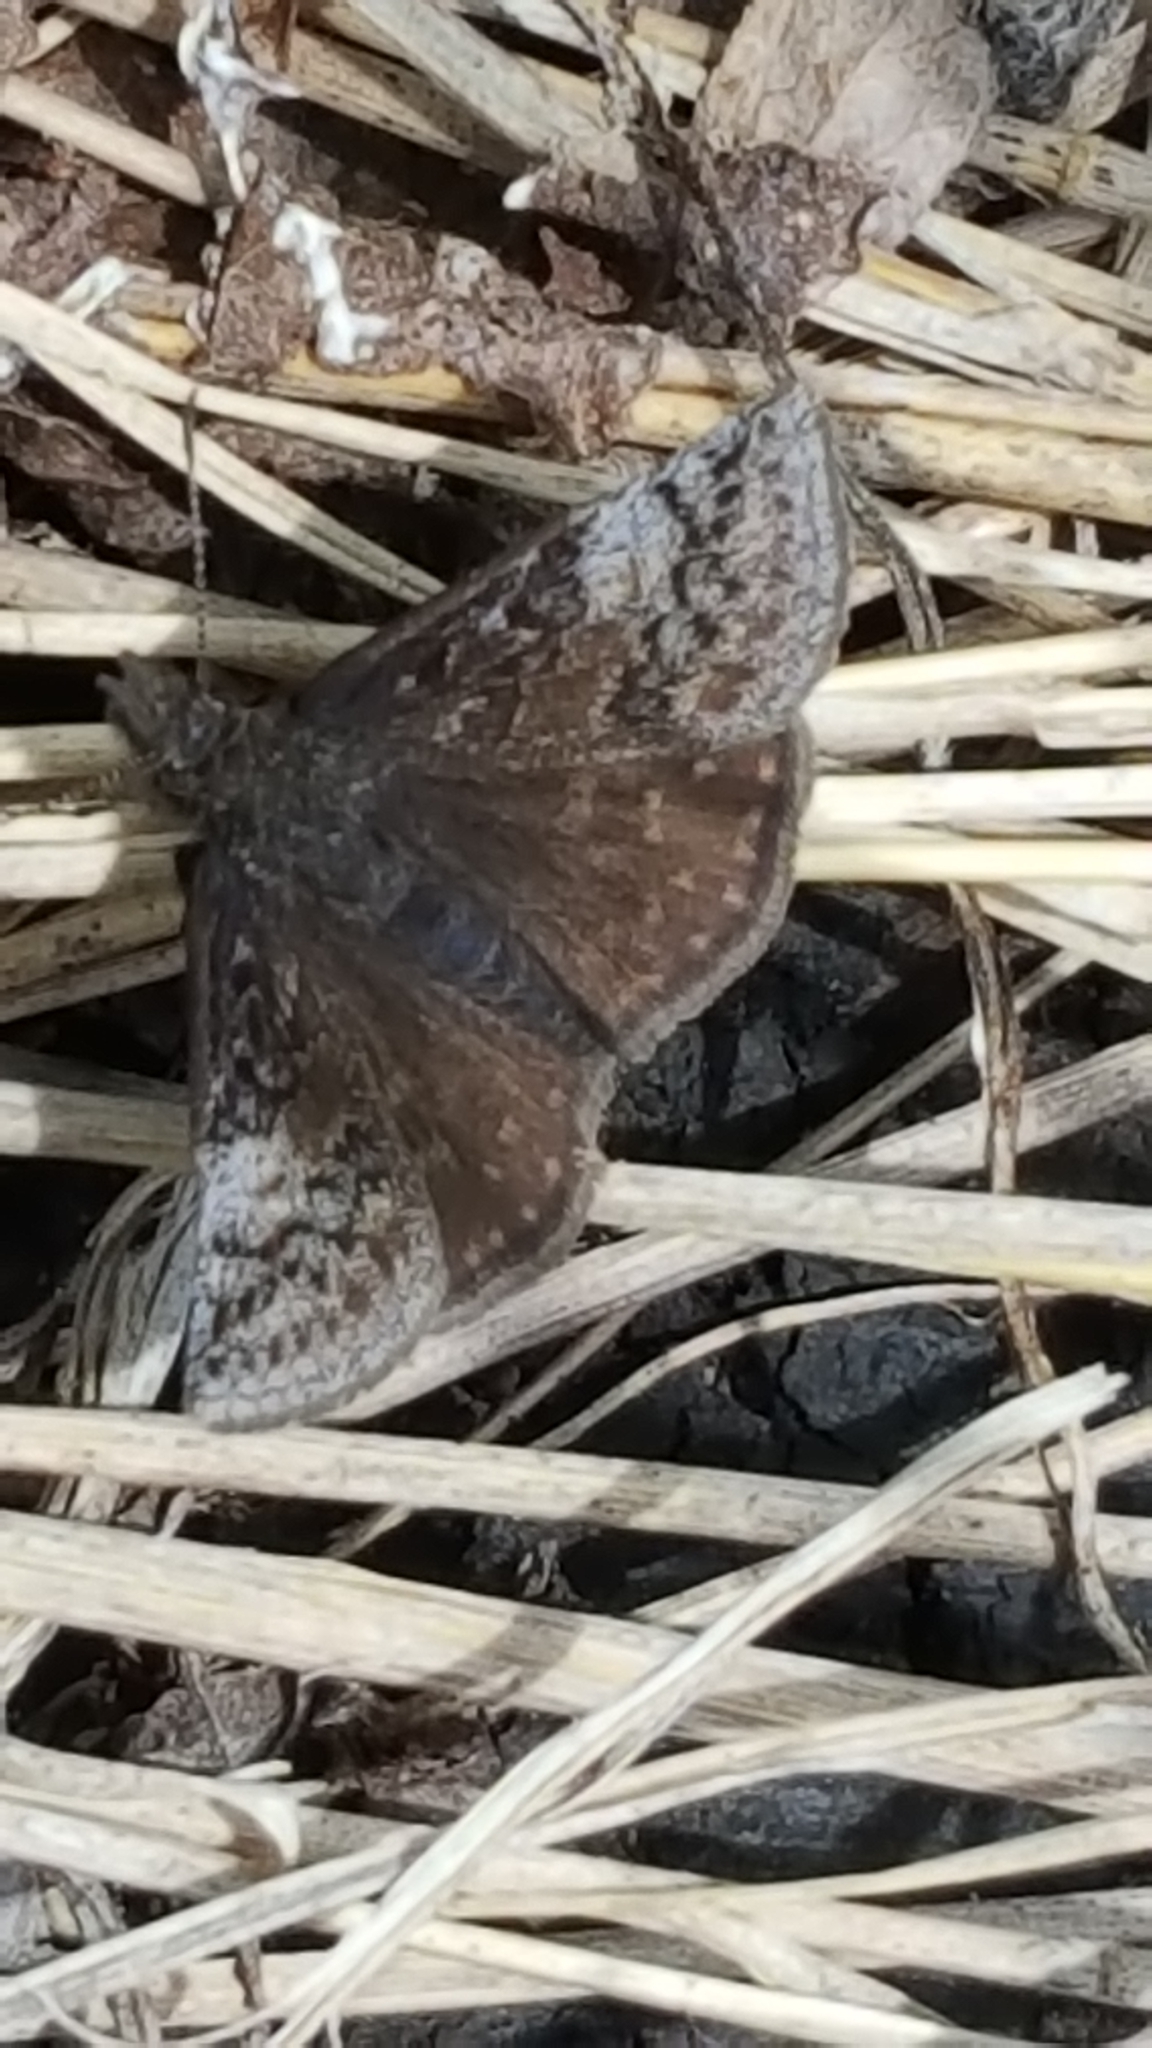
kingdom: Animalia
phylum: Arthropoda
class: Insecta
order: Lepidoptera
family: Hesperiidae
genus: Erynnis
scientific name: Erynnis icelus
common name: Dreamy duskywing
